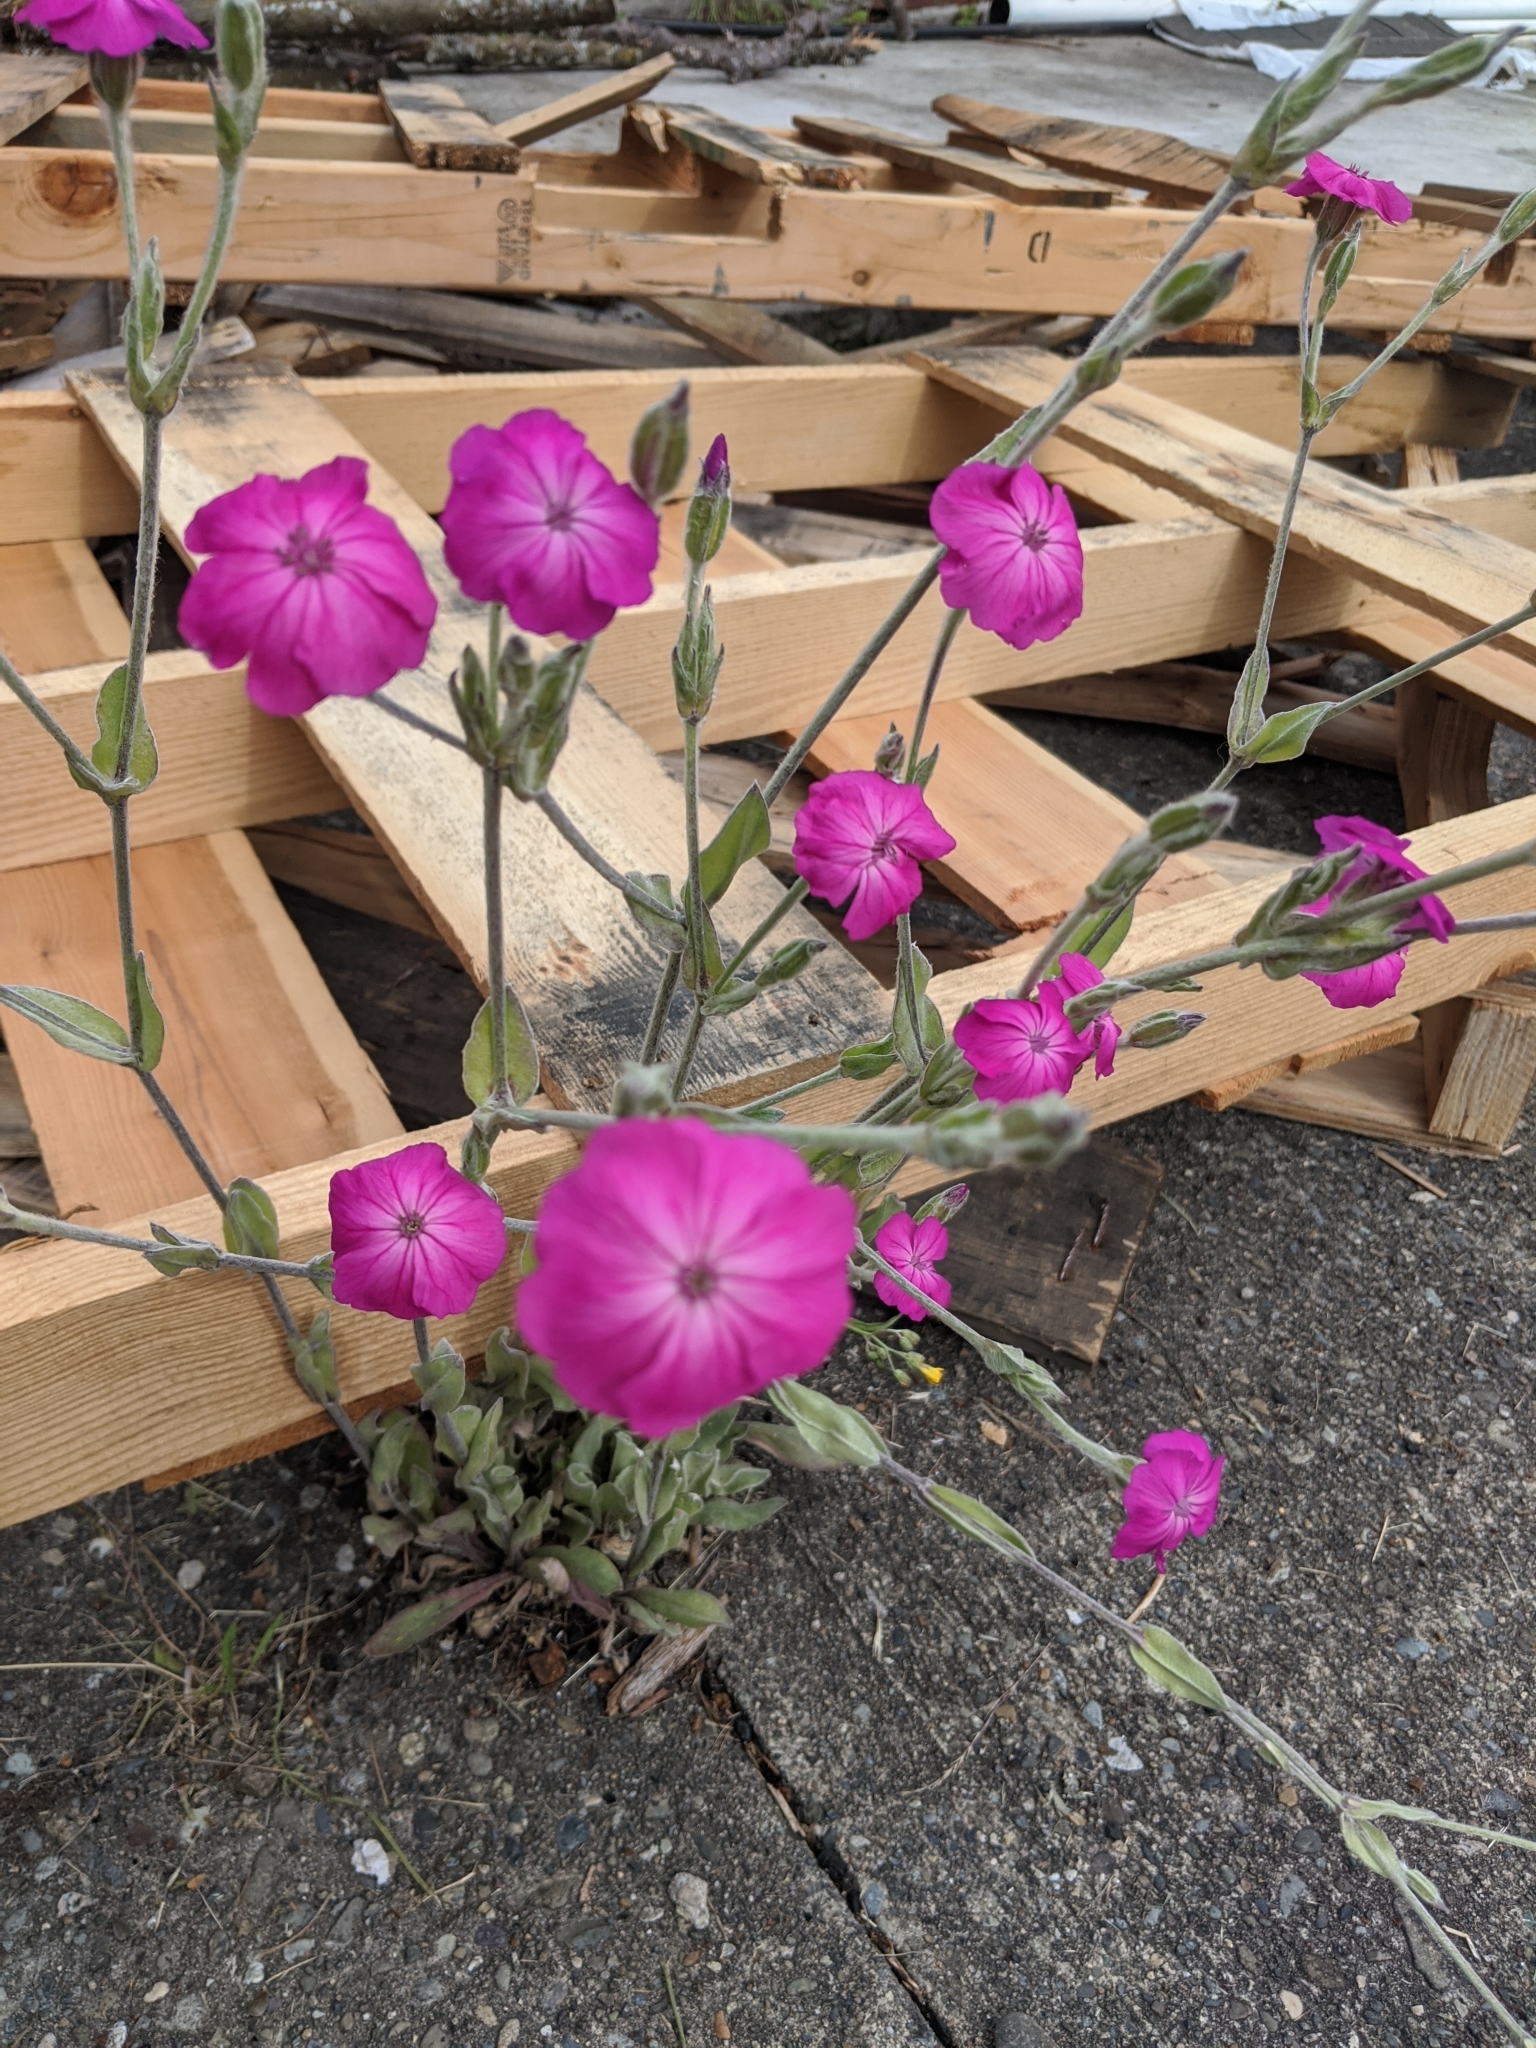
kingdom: Plantae
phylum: Tracheophyta
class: Magnoliopsida
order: Caryophyllales
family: Caryophyllaceae
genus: Silene
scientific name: Silene coronaria
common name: Rose campion
